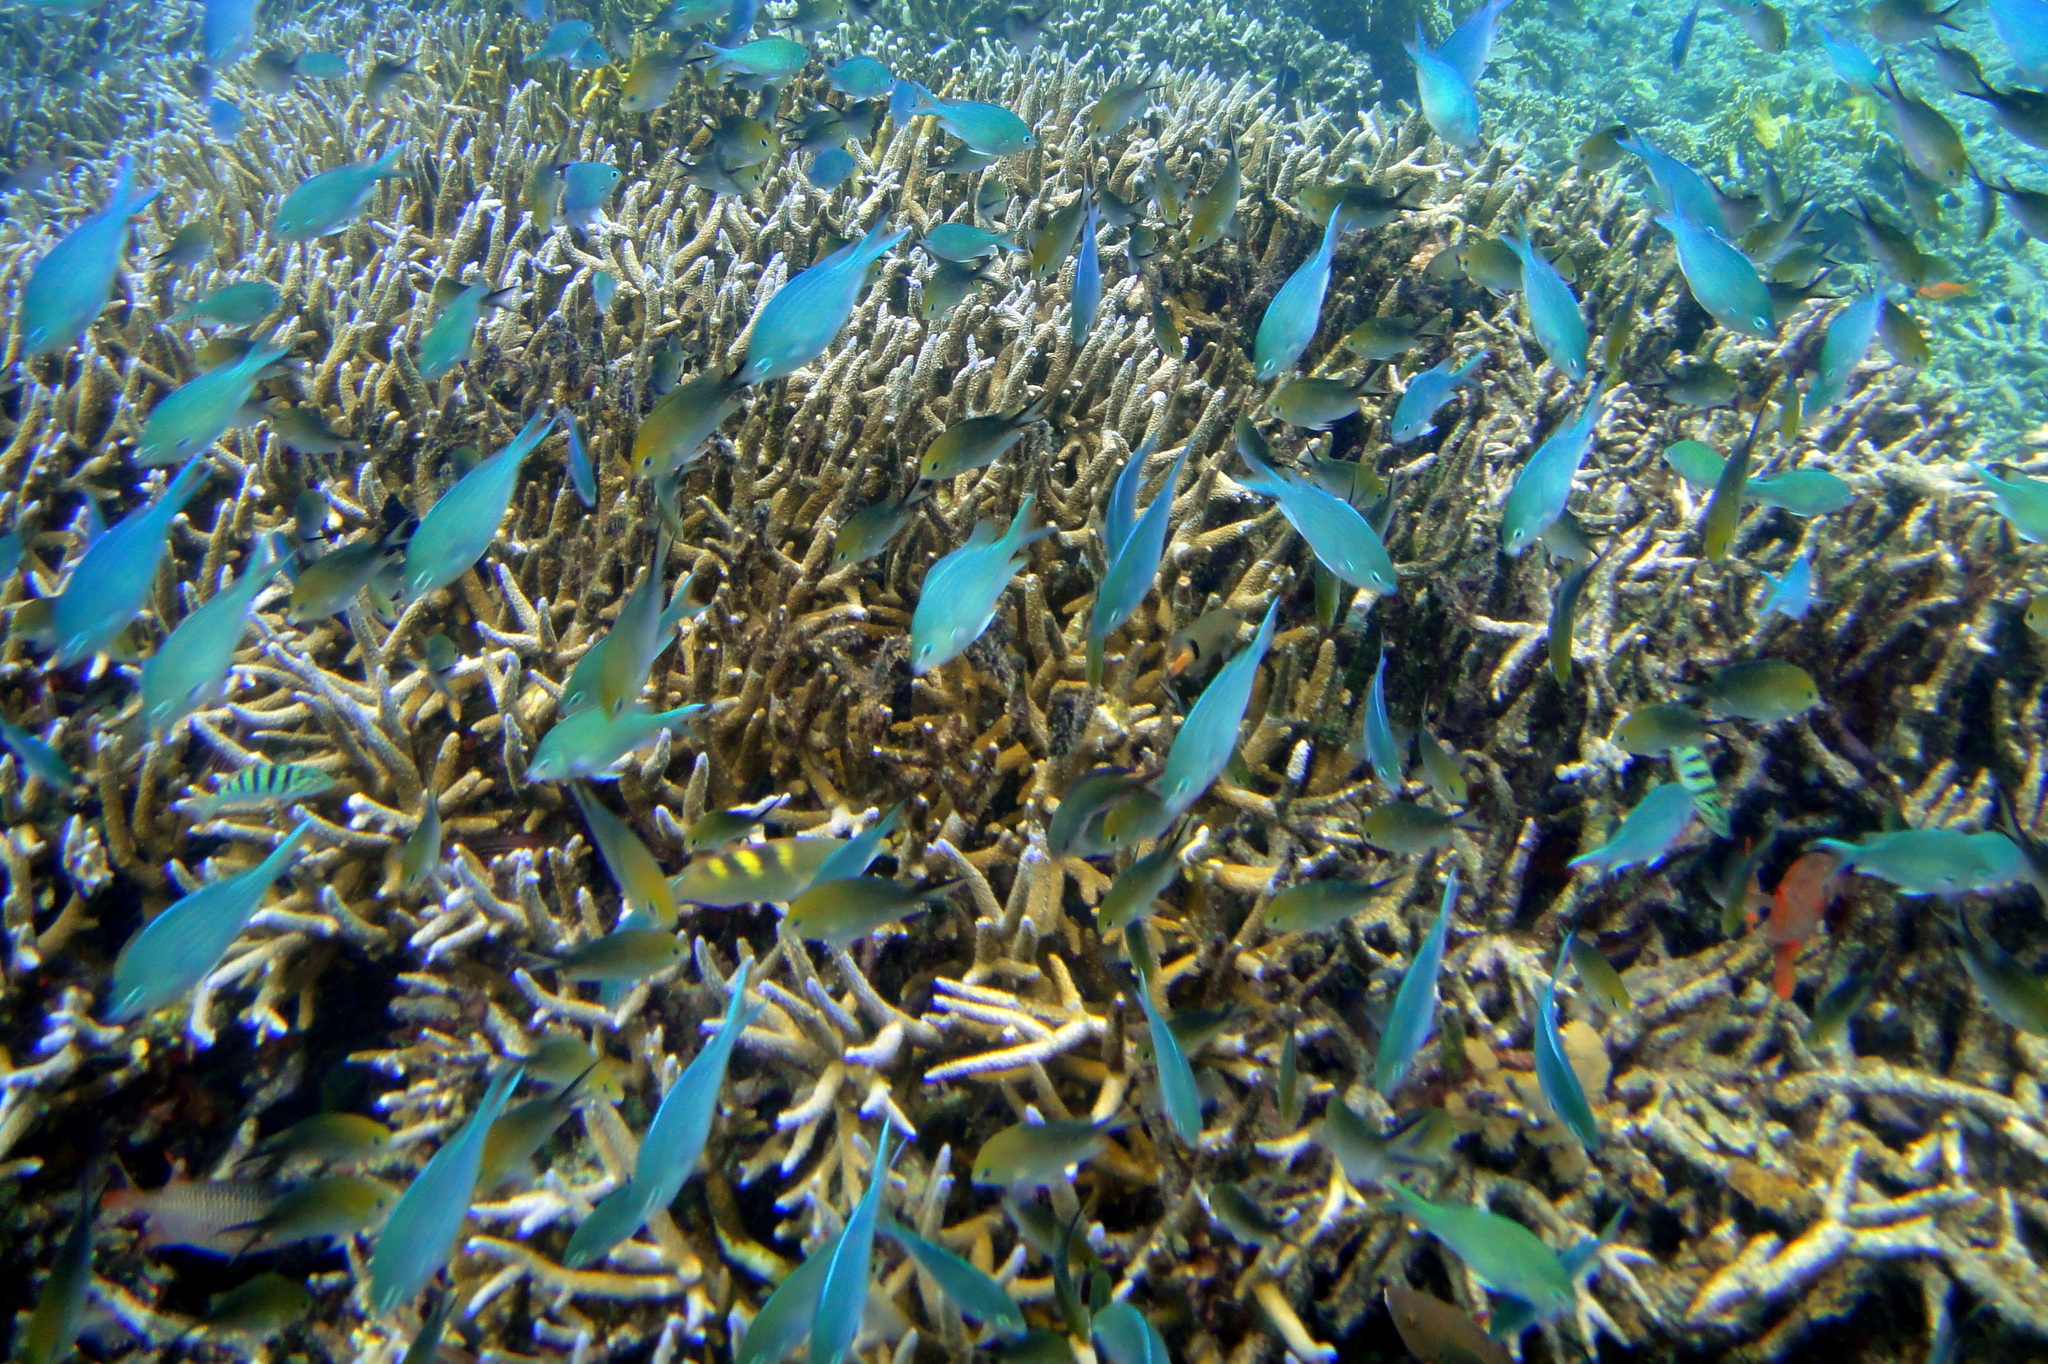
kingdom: Animalia
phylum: Chordata
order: Perciformes
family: Pomacentridae
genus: Chromis
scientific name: Chromis viridis
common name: Blue-green chromis
